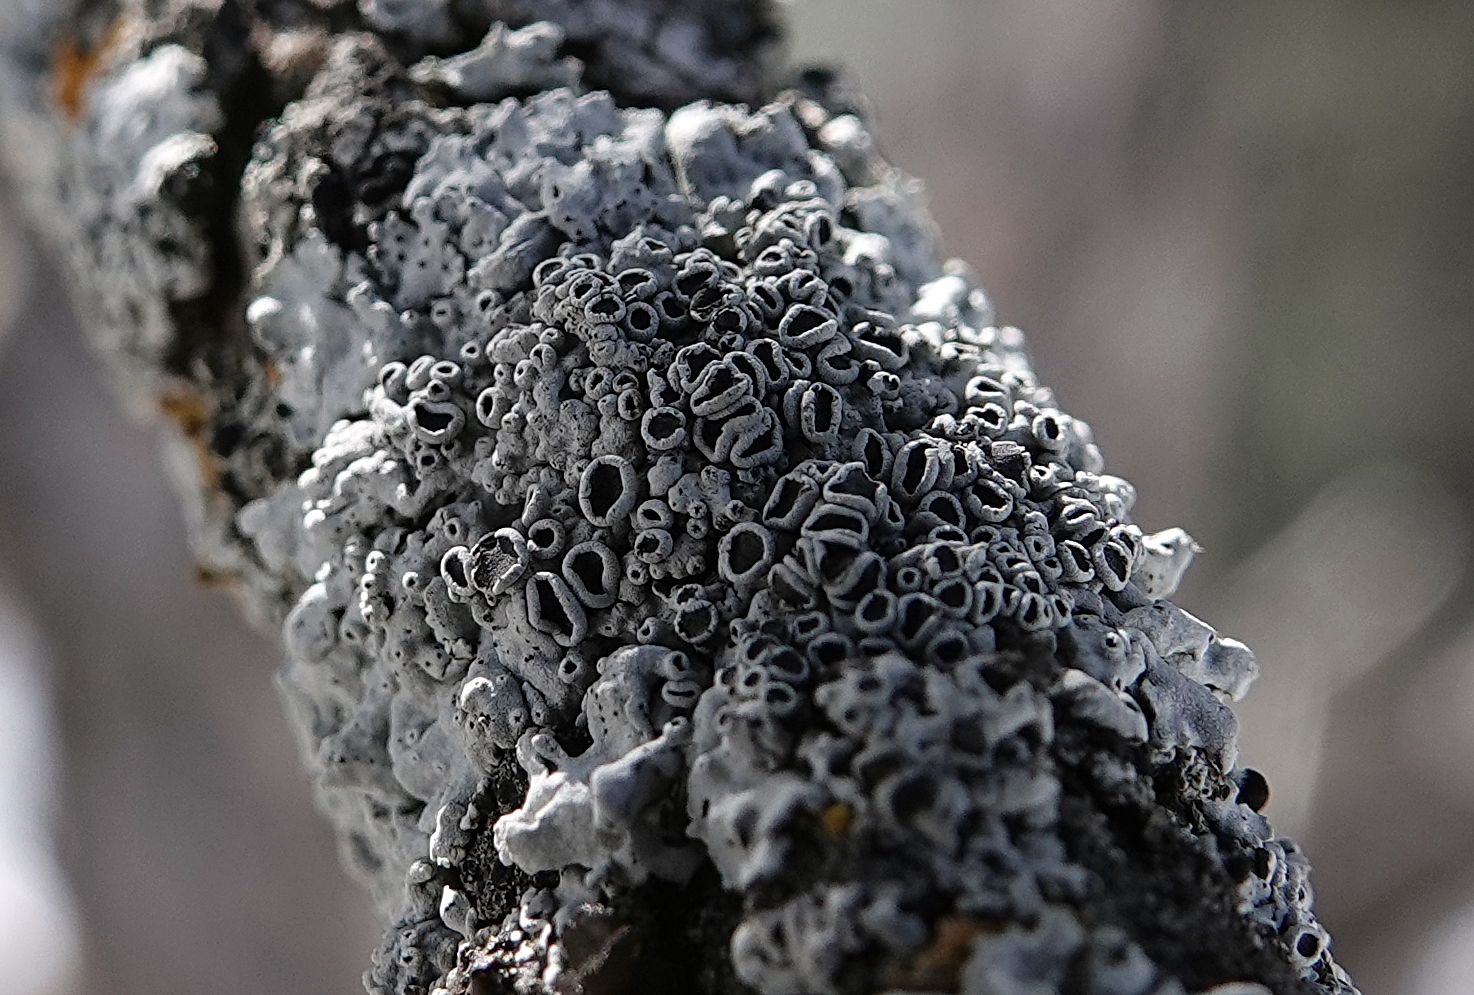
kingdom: Fungi
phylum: Ascomycota
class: Lecanoromycetes
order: Caliciales
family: Physciaceae
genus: Physcia
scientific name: Physcia biziana
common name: Frosted rosette lichen
